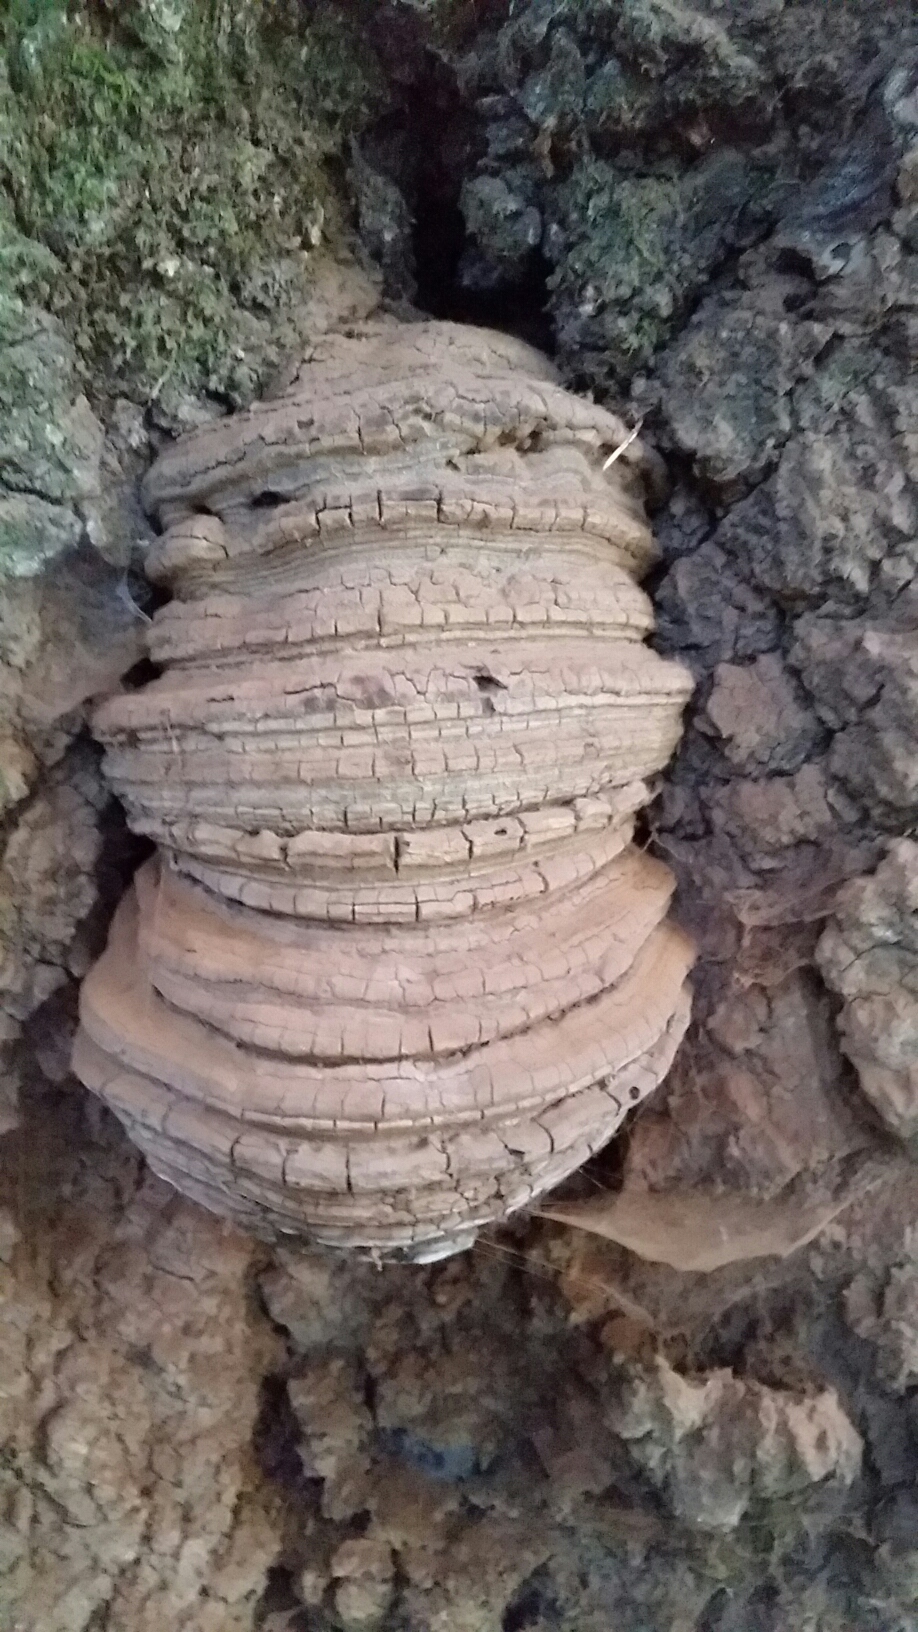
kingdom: Fungi
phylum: Basidiomycota
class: Agaricomycetes
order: Polyporales
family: Polyporaceae
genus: Ganoderma
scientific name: Ganoderma brownii
